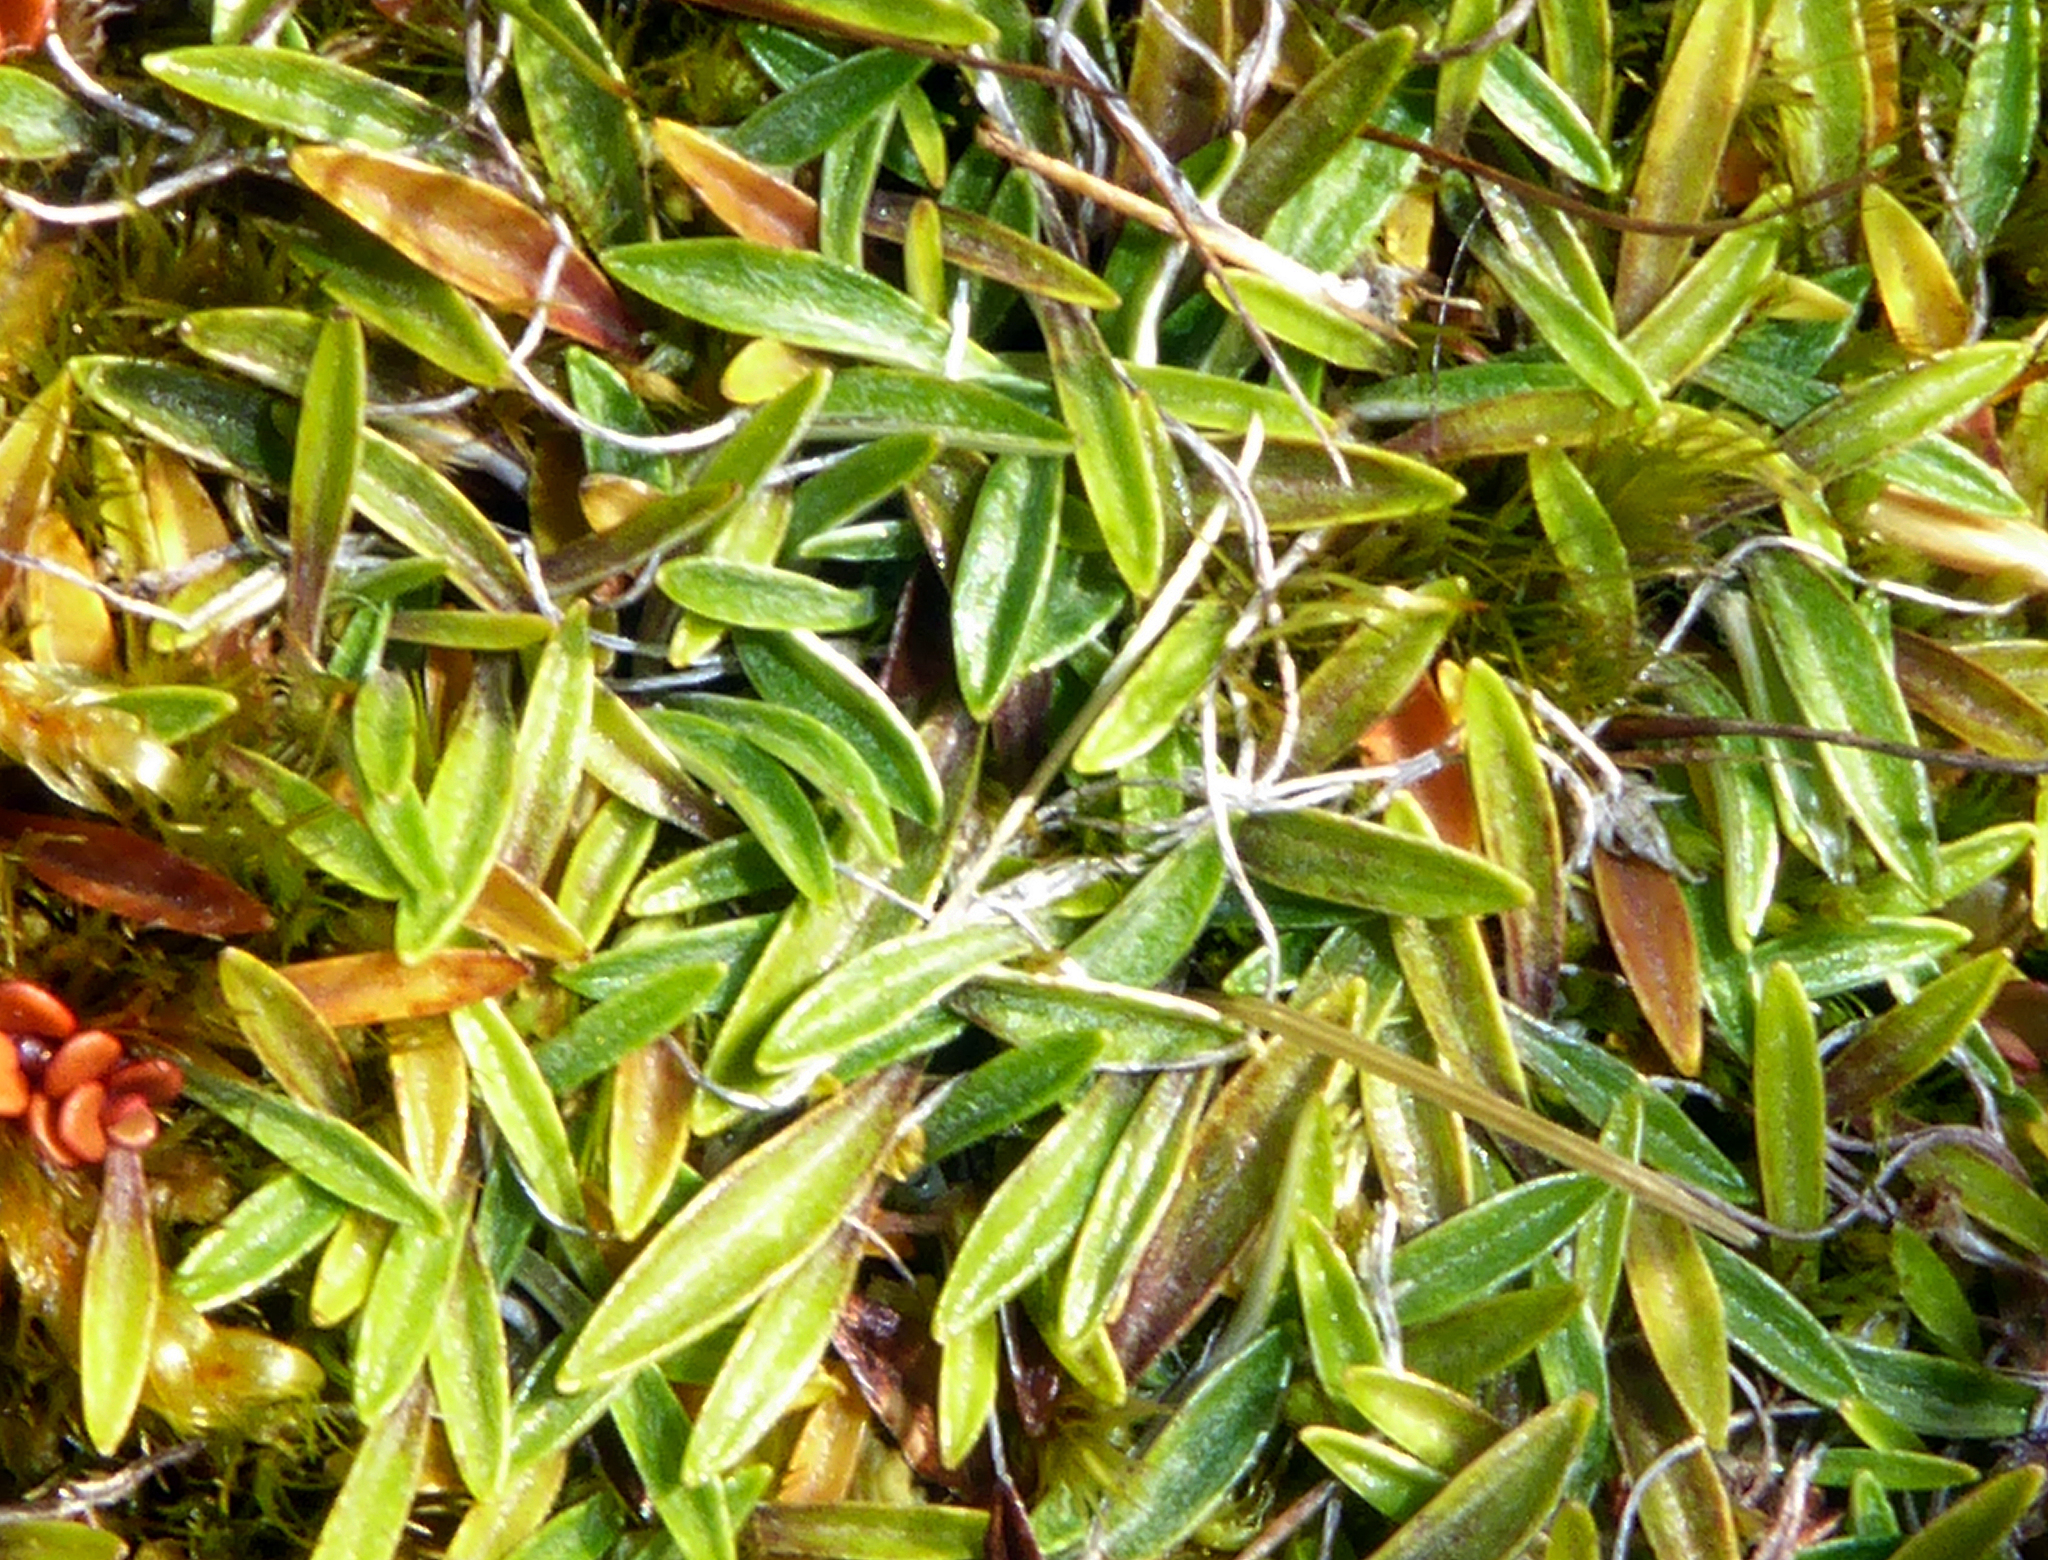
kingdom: Plantae
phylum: Tracheophyta
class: Magnoliopsida
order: Asterales
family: Asteraceae
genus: Euchiton
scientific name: Euchiton paludosus
